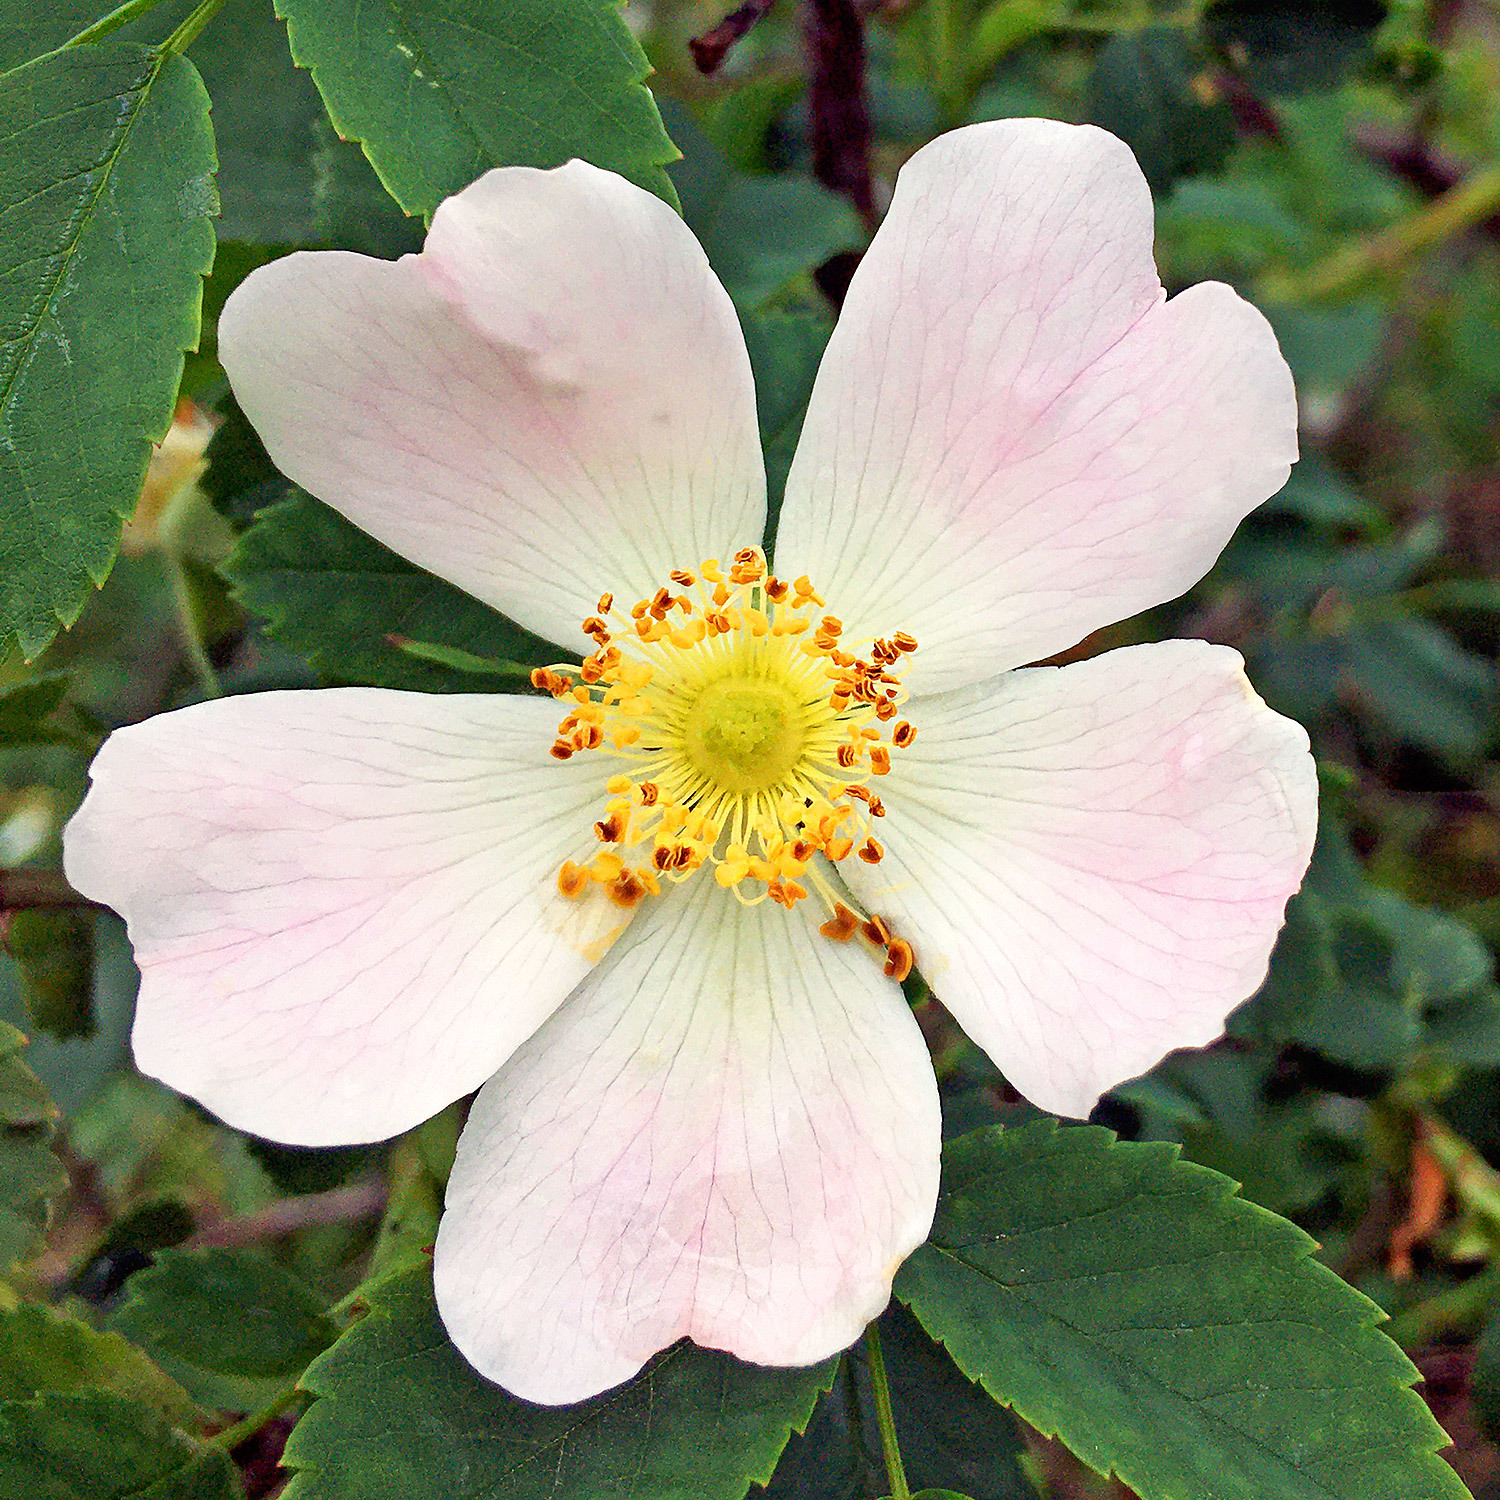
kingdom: Plantae
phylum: Tracheophyta
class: Magnoliopsida
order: Rosales
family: Rosaceae
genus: Rosa
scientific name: Rosa canina
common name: Dog rose
